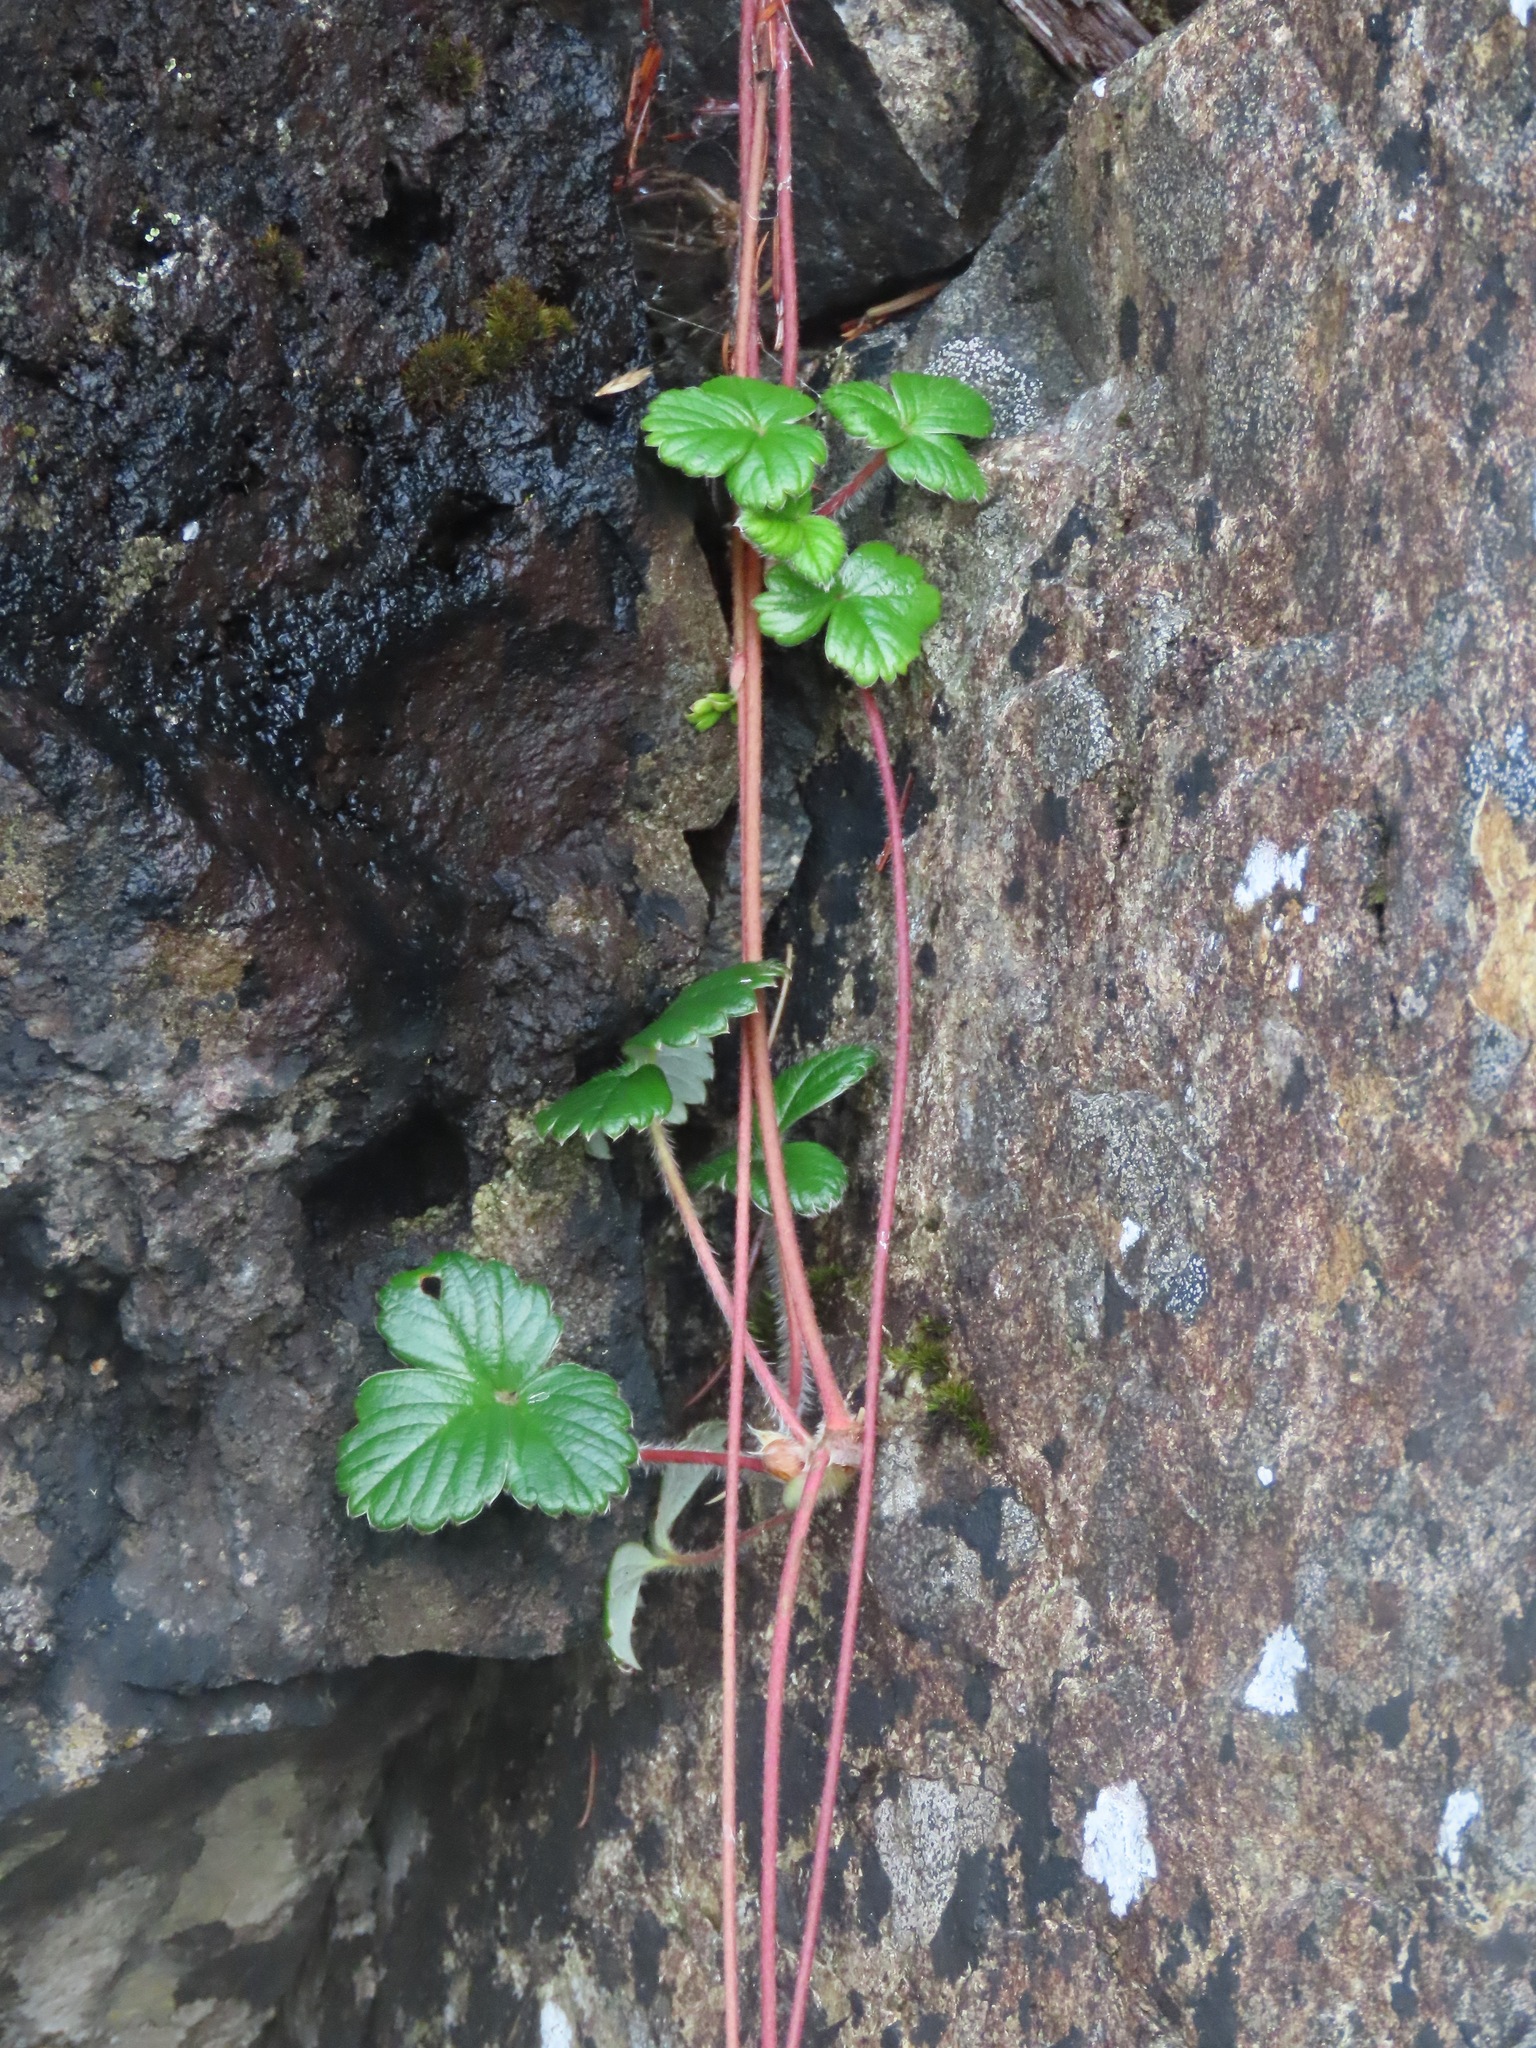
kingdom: Plantae
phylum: Tracheophyta
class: Magnoliopsida
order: Rosales
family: Rosaceae
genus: Fragaria
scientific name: Fragaria chiloensis
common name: Beach strawberry
